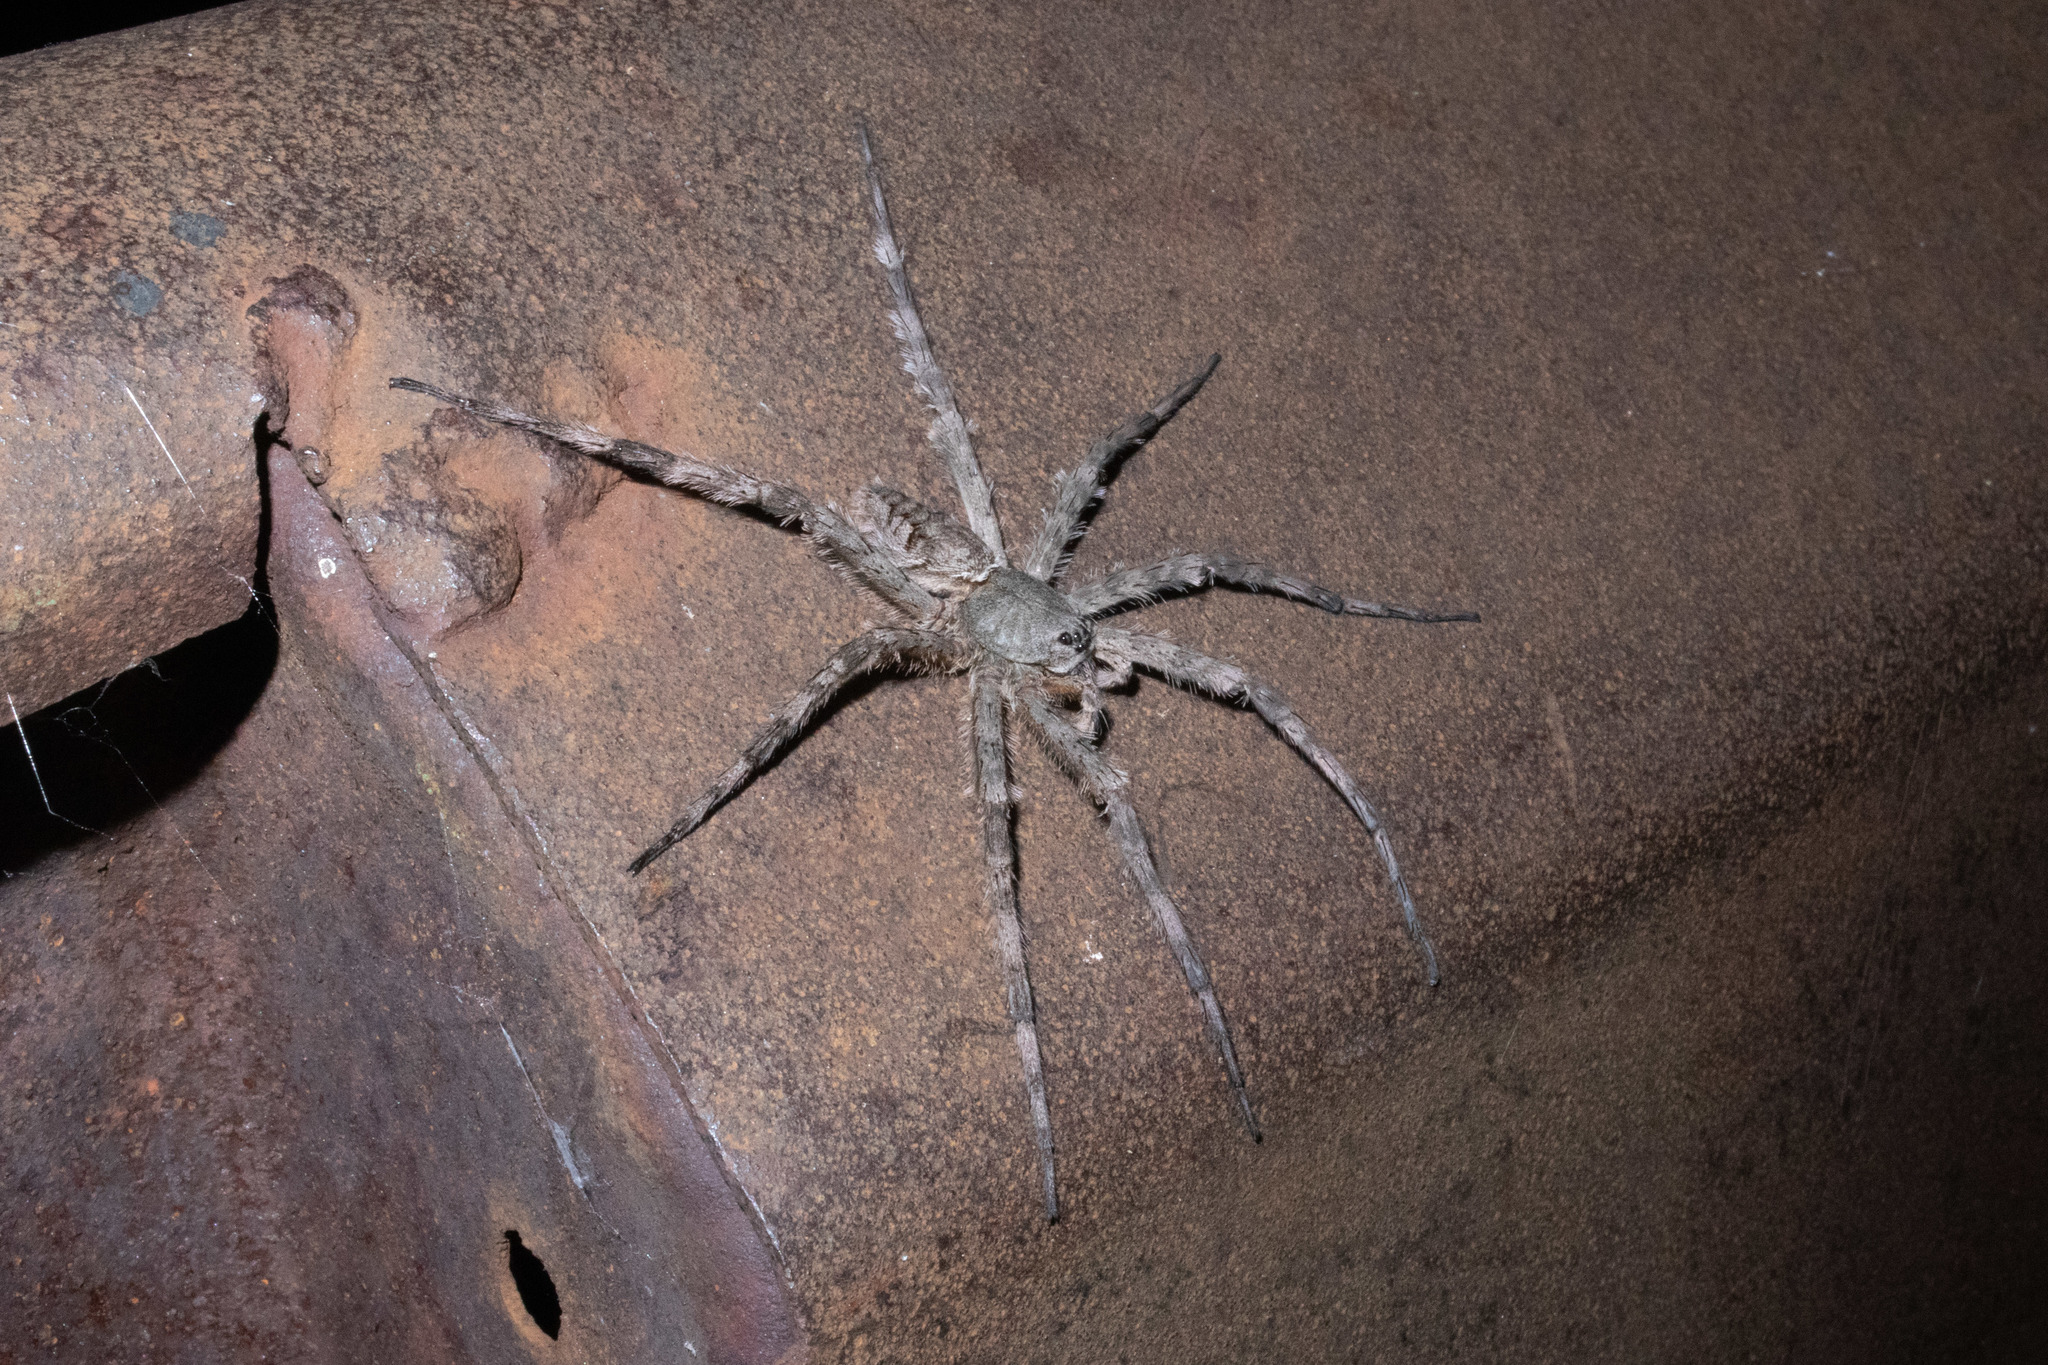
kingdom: Animalia
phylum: Arthropoda
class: Arachnida
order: Araneae
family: Pisauridae
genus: Dolomedes
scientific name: Dolomedes albineus
